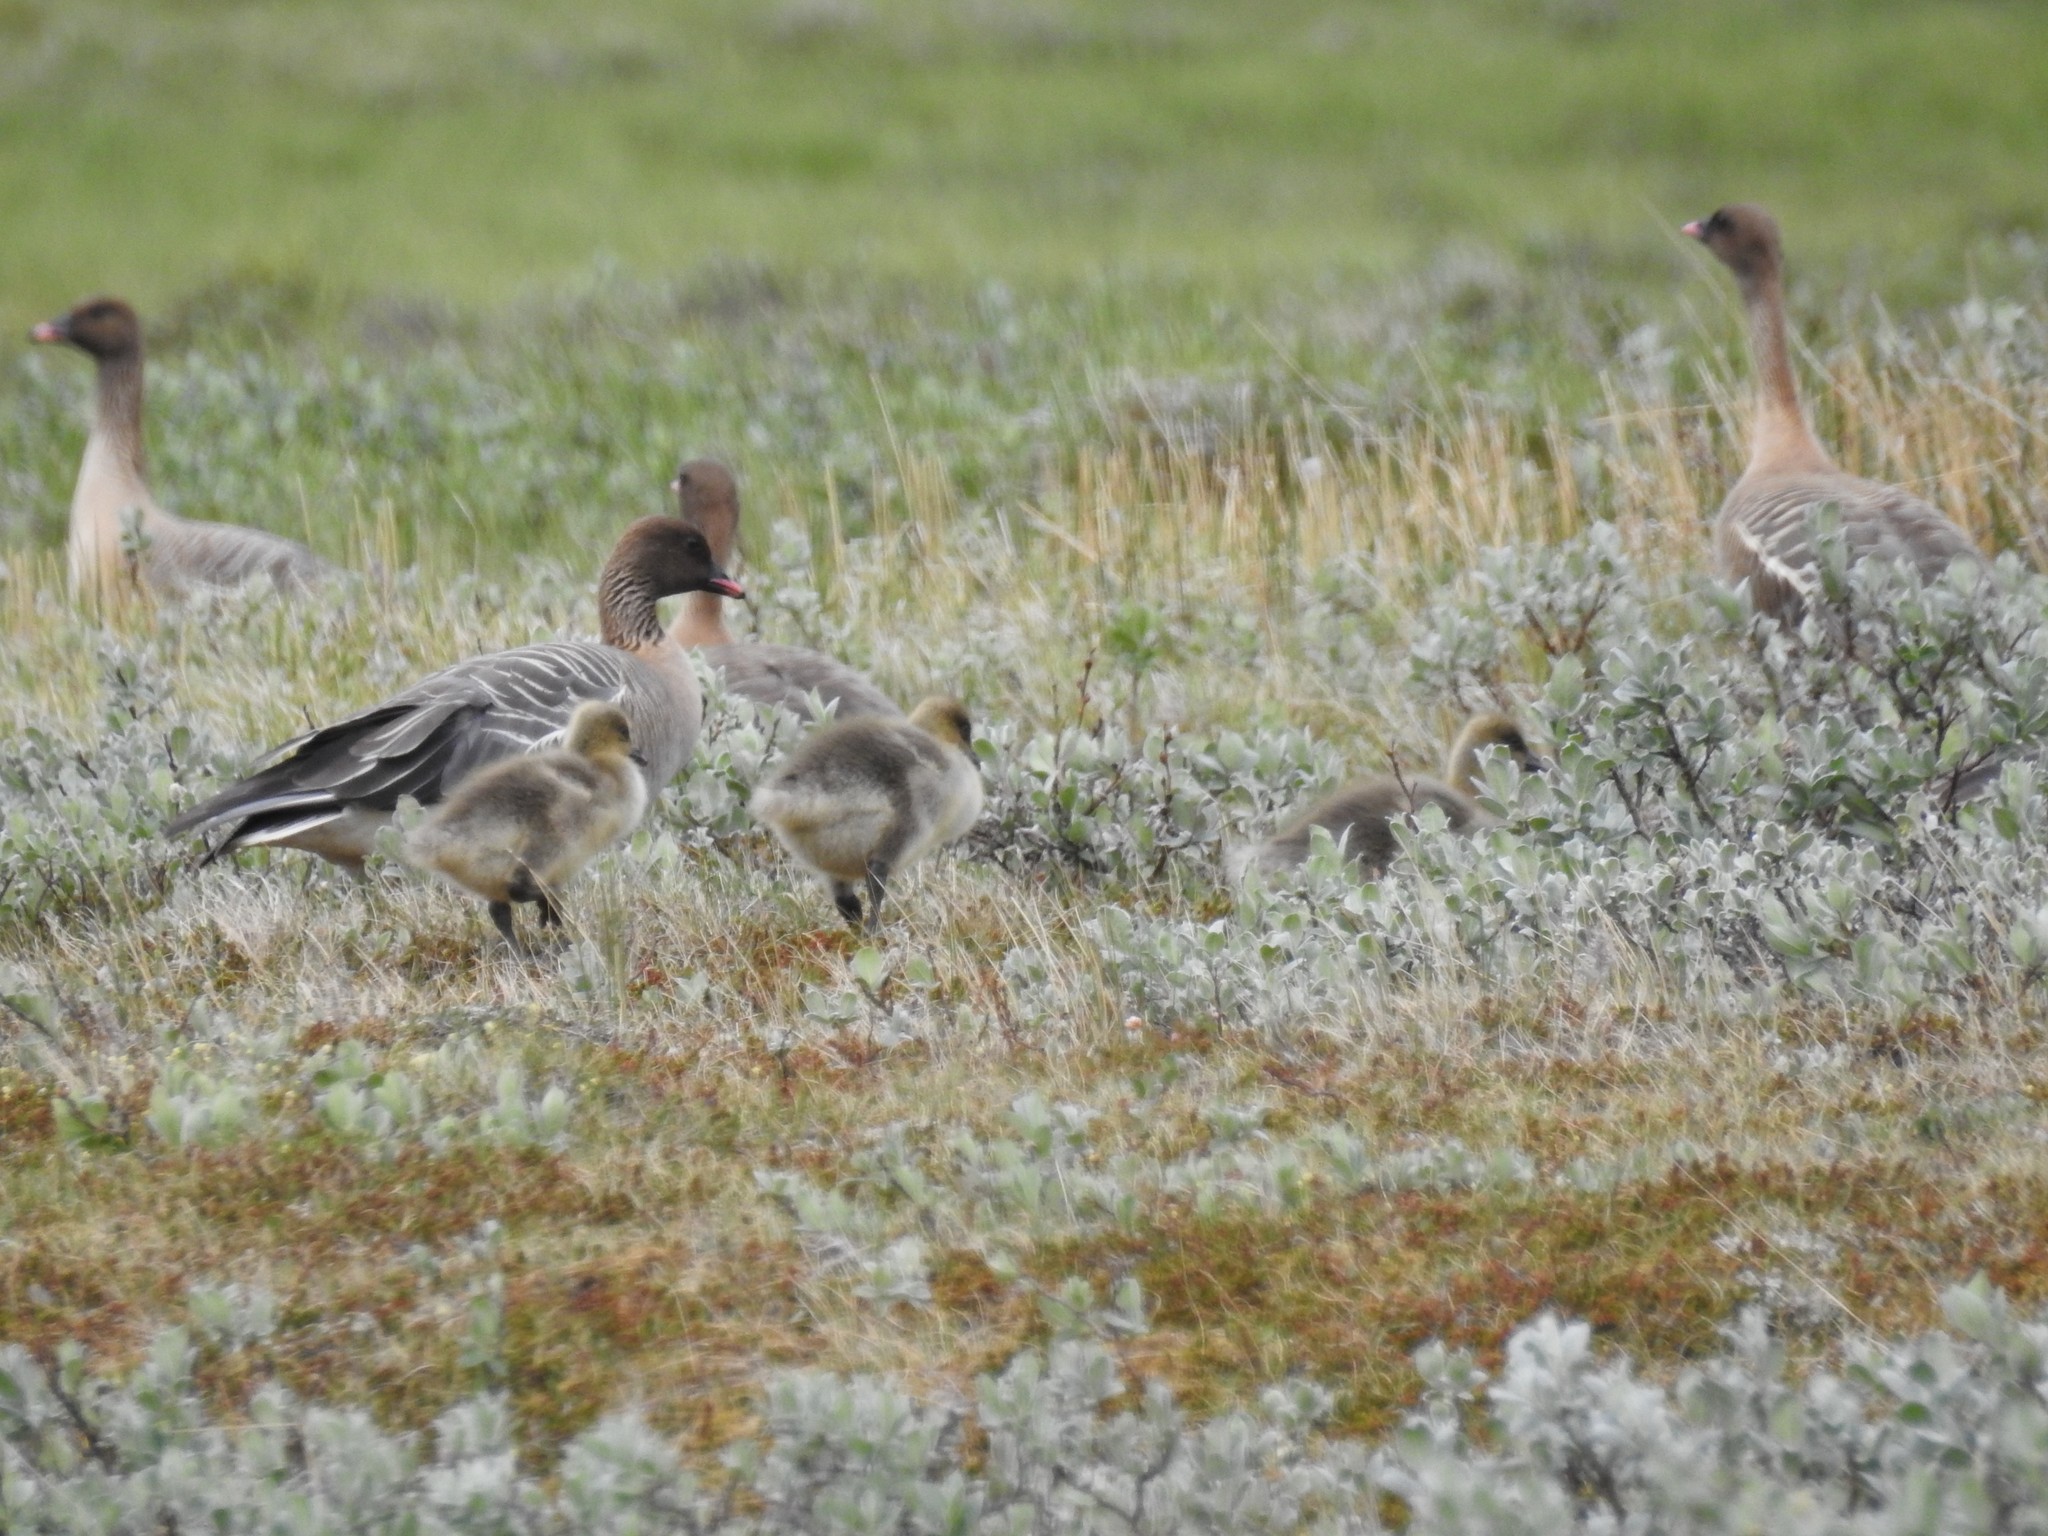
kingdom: Animalia
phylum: Chordata
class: Aves
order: Anseriformes
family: Anatidae
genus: Anser
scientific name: Anser brachyrhynchus
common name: Pink-footed goose
